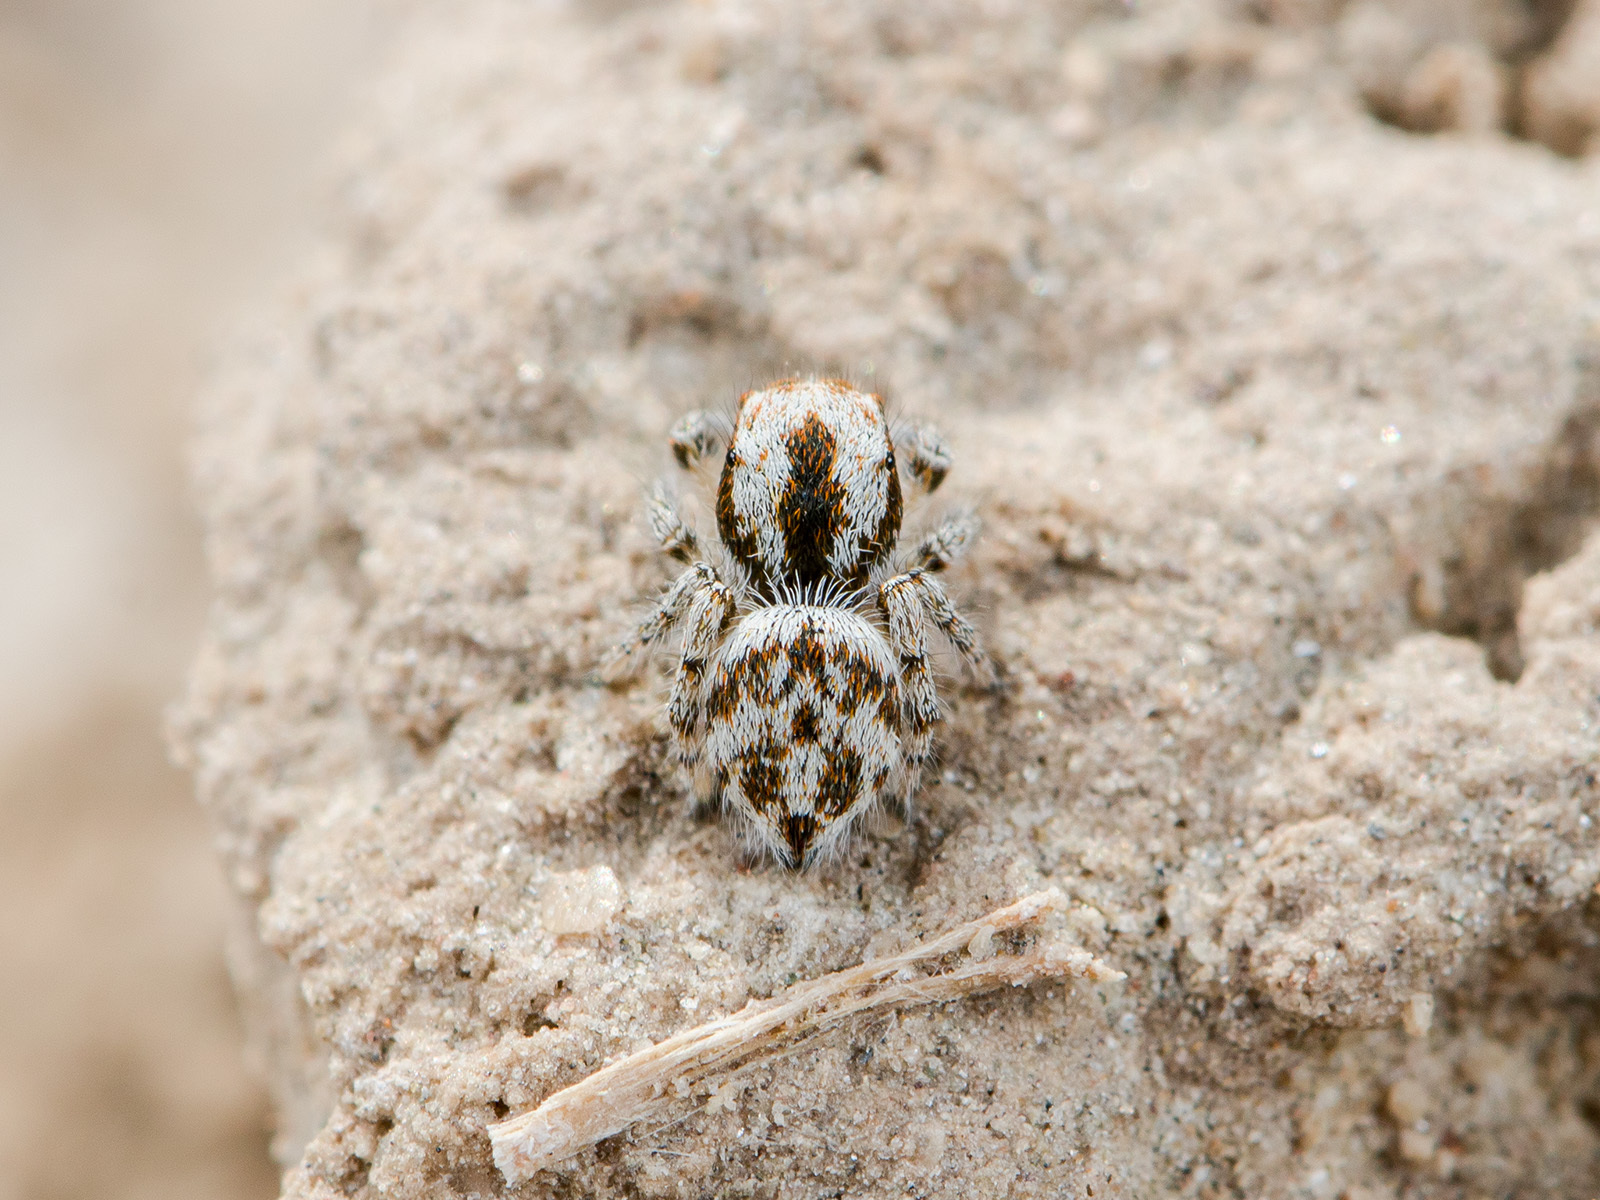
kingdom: Animalia
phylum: Arthropoda
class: Arachnida
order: Araneae
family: Salticidae
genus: Pseudomogrus
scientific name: Pseudomogrus dalaensis
